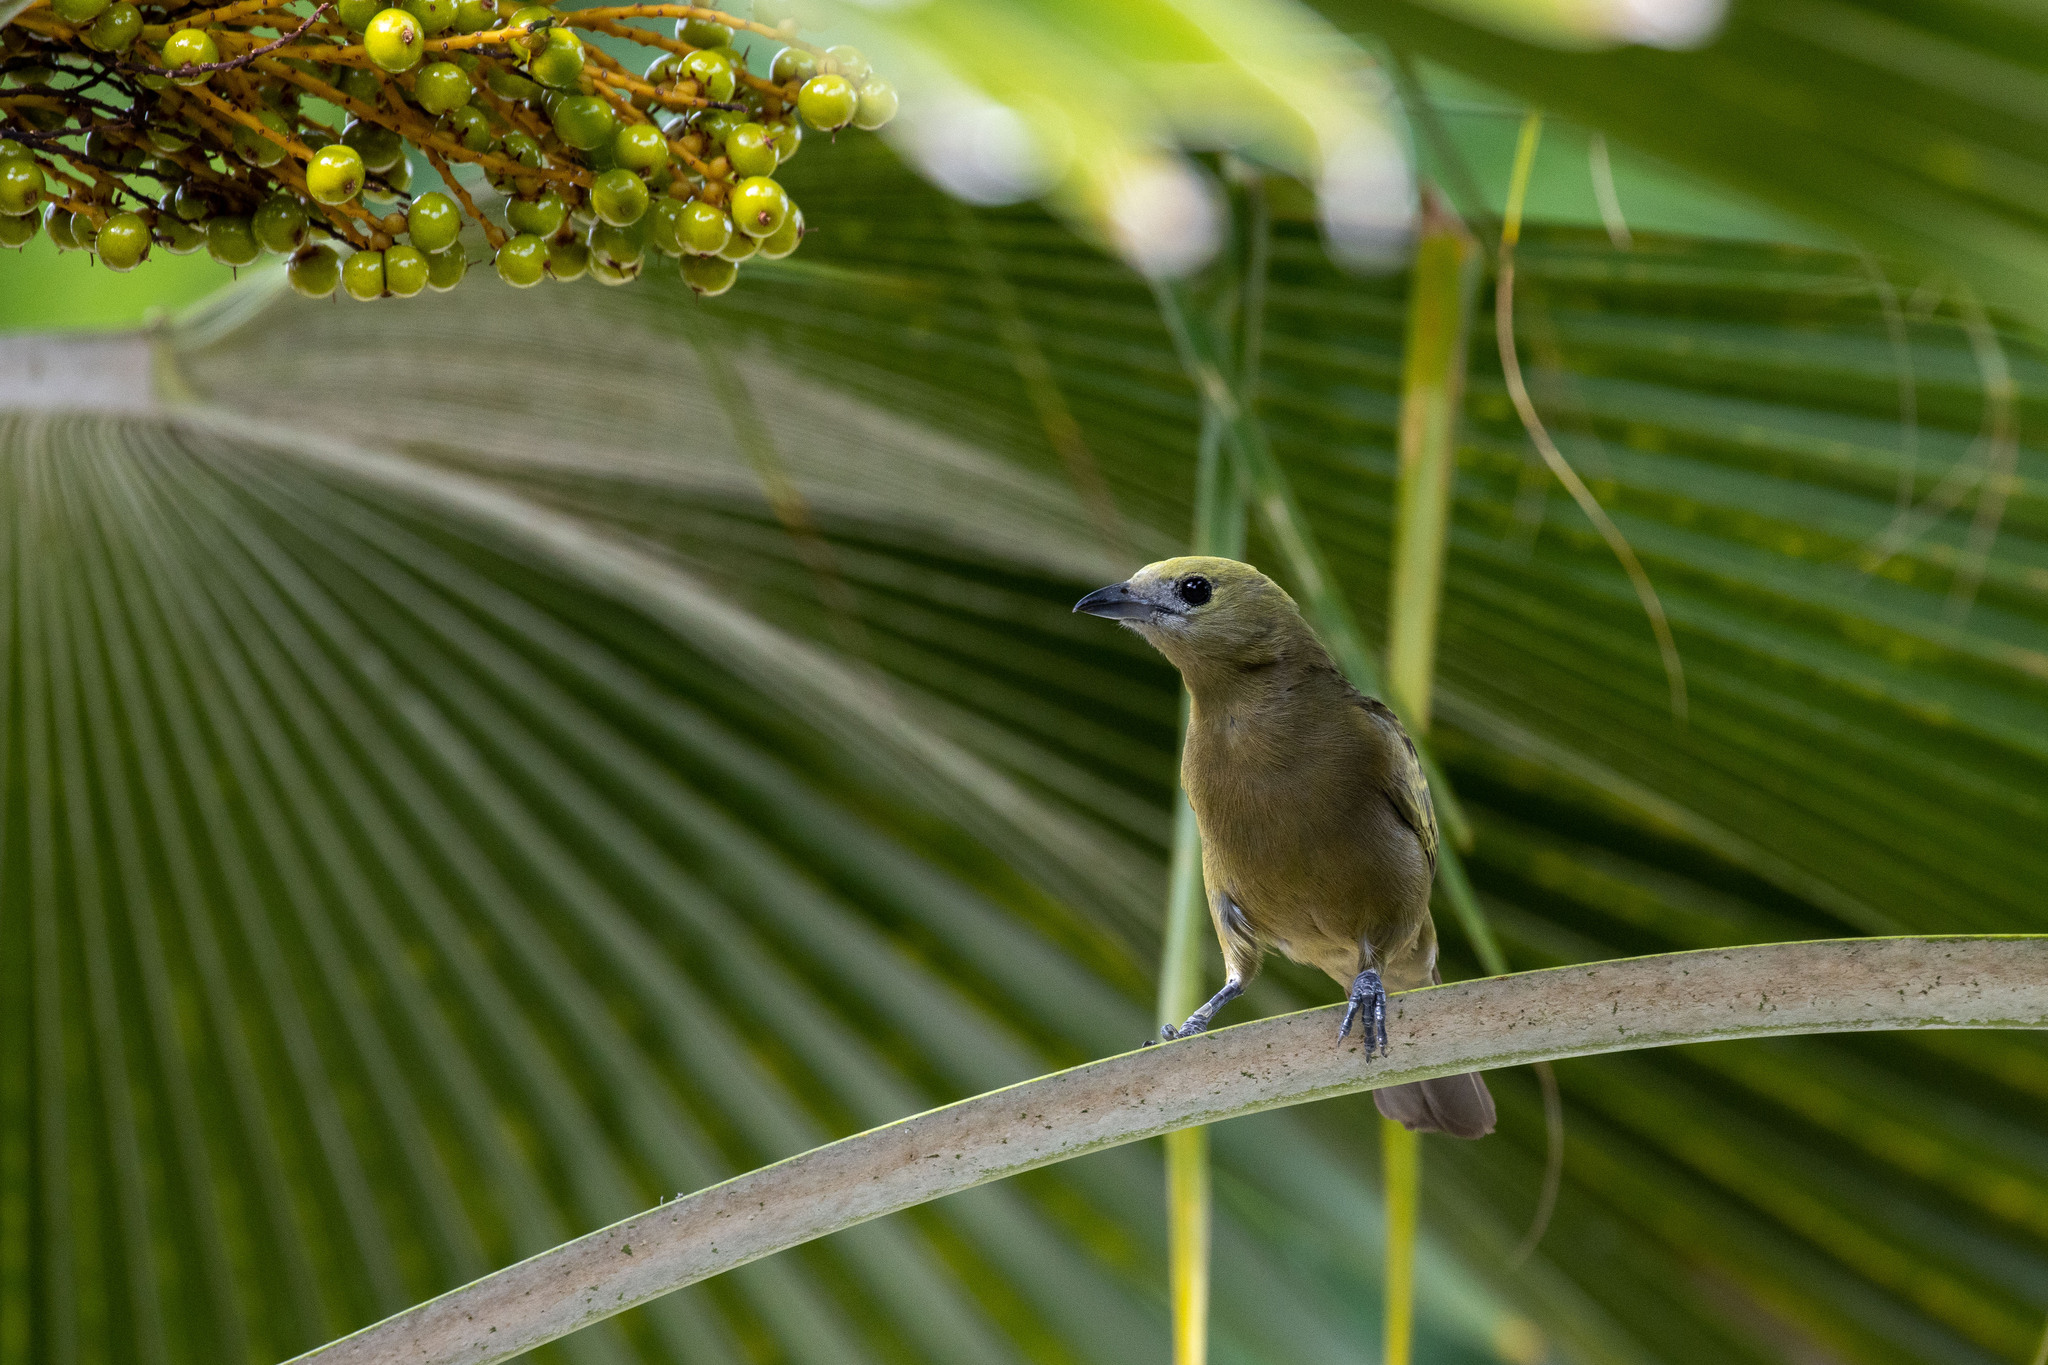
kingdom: Animalia
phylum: Chordata
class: Aves
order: Passeriformes
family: Thraupidae
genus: Thraupis
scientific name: Thraupis palmarum
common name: Palm tanager
